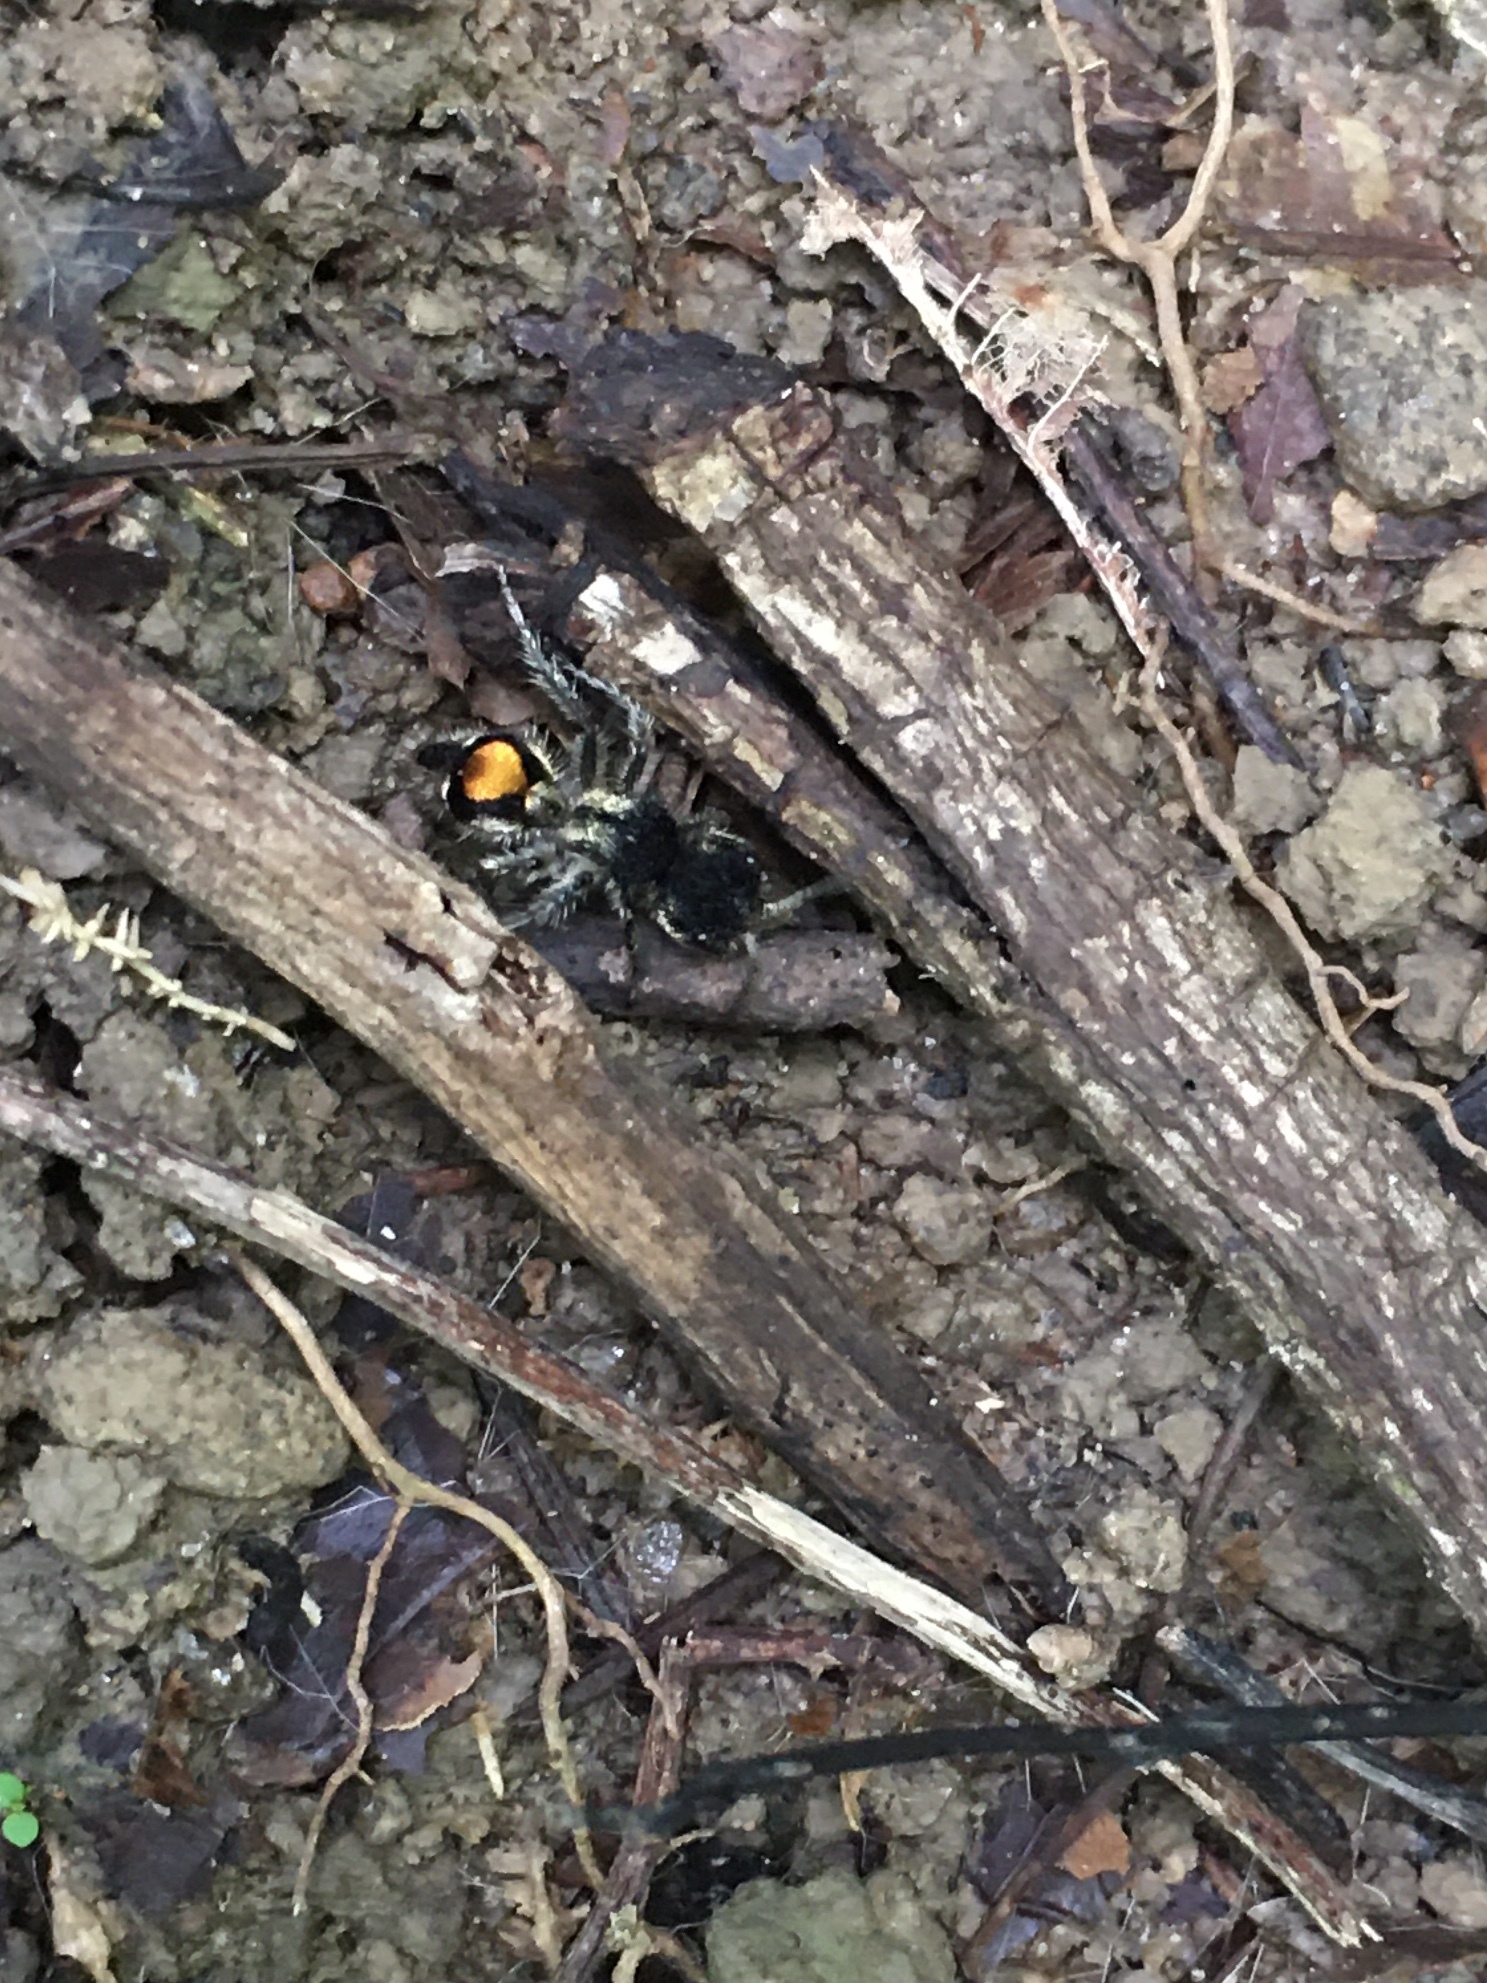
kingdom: Animalia
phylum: Arthropoda
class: Insecta
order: Hymenoptera
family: Mutillidae
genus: Hoplocrates
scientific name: Hoplocrates
